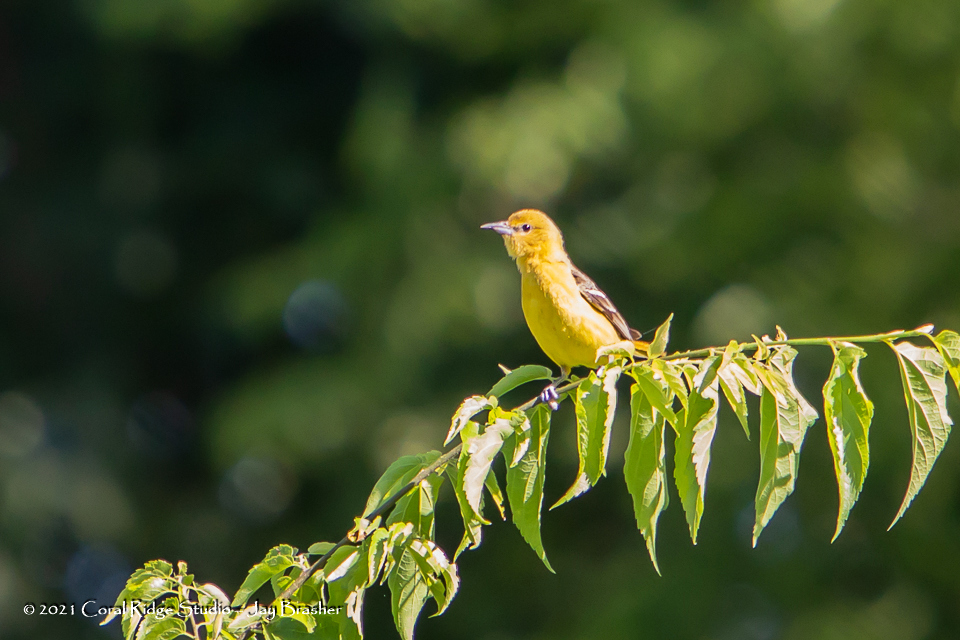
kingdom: Animalia
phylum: Chordata
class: Aves
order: Passeriformes
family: Icteridae
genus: Icterus
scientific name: Icterus spurius
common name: Orchard oriole
